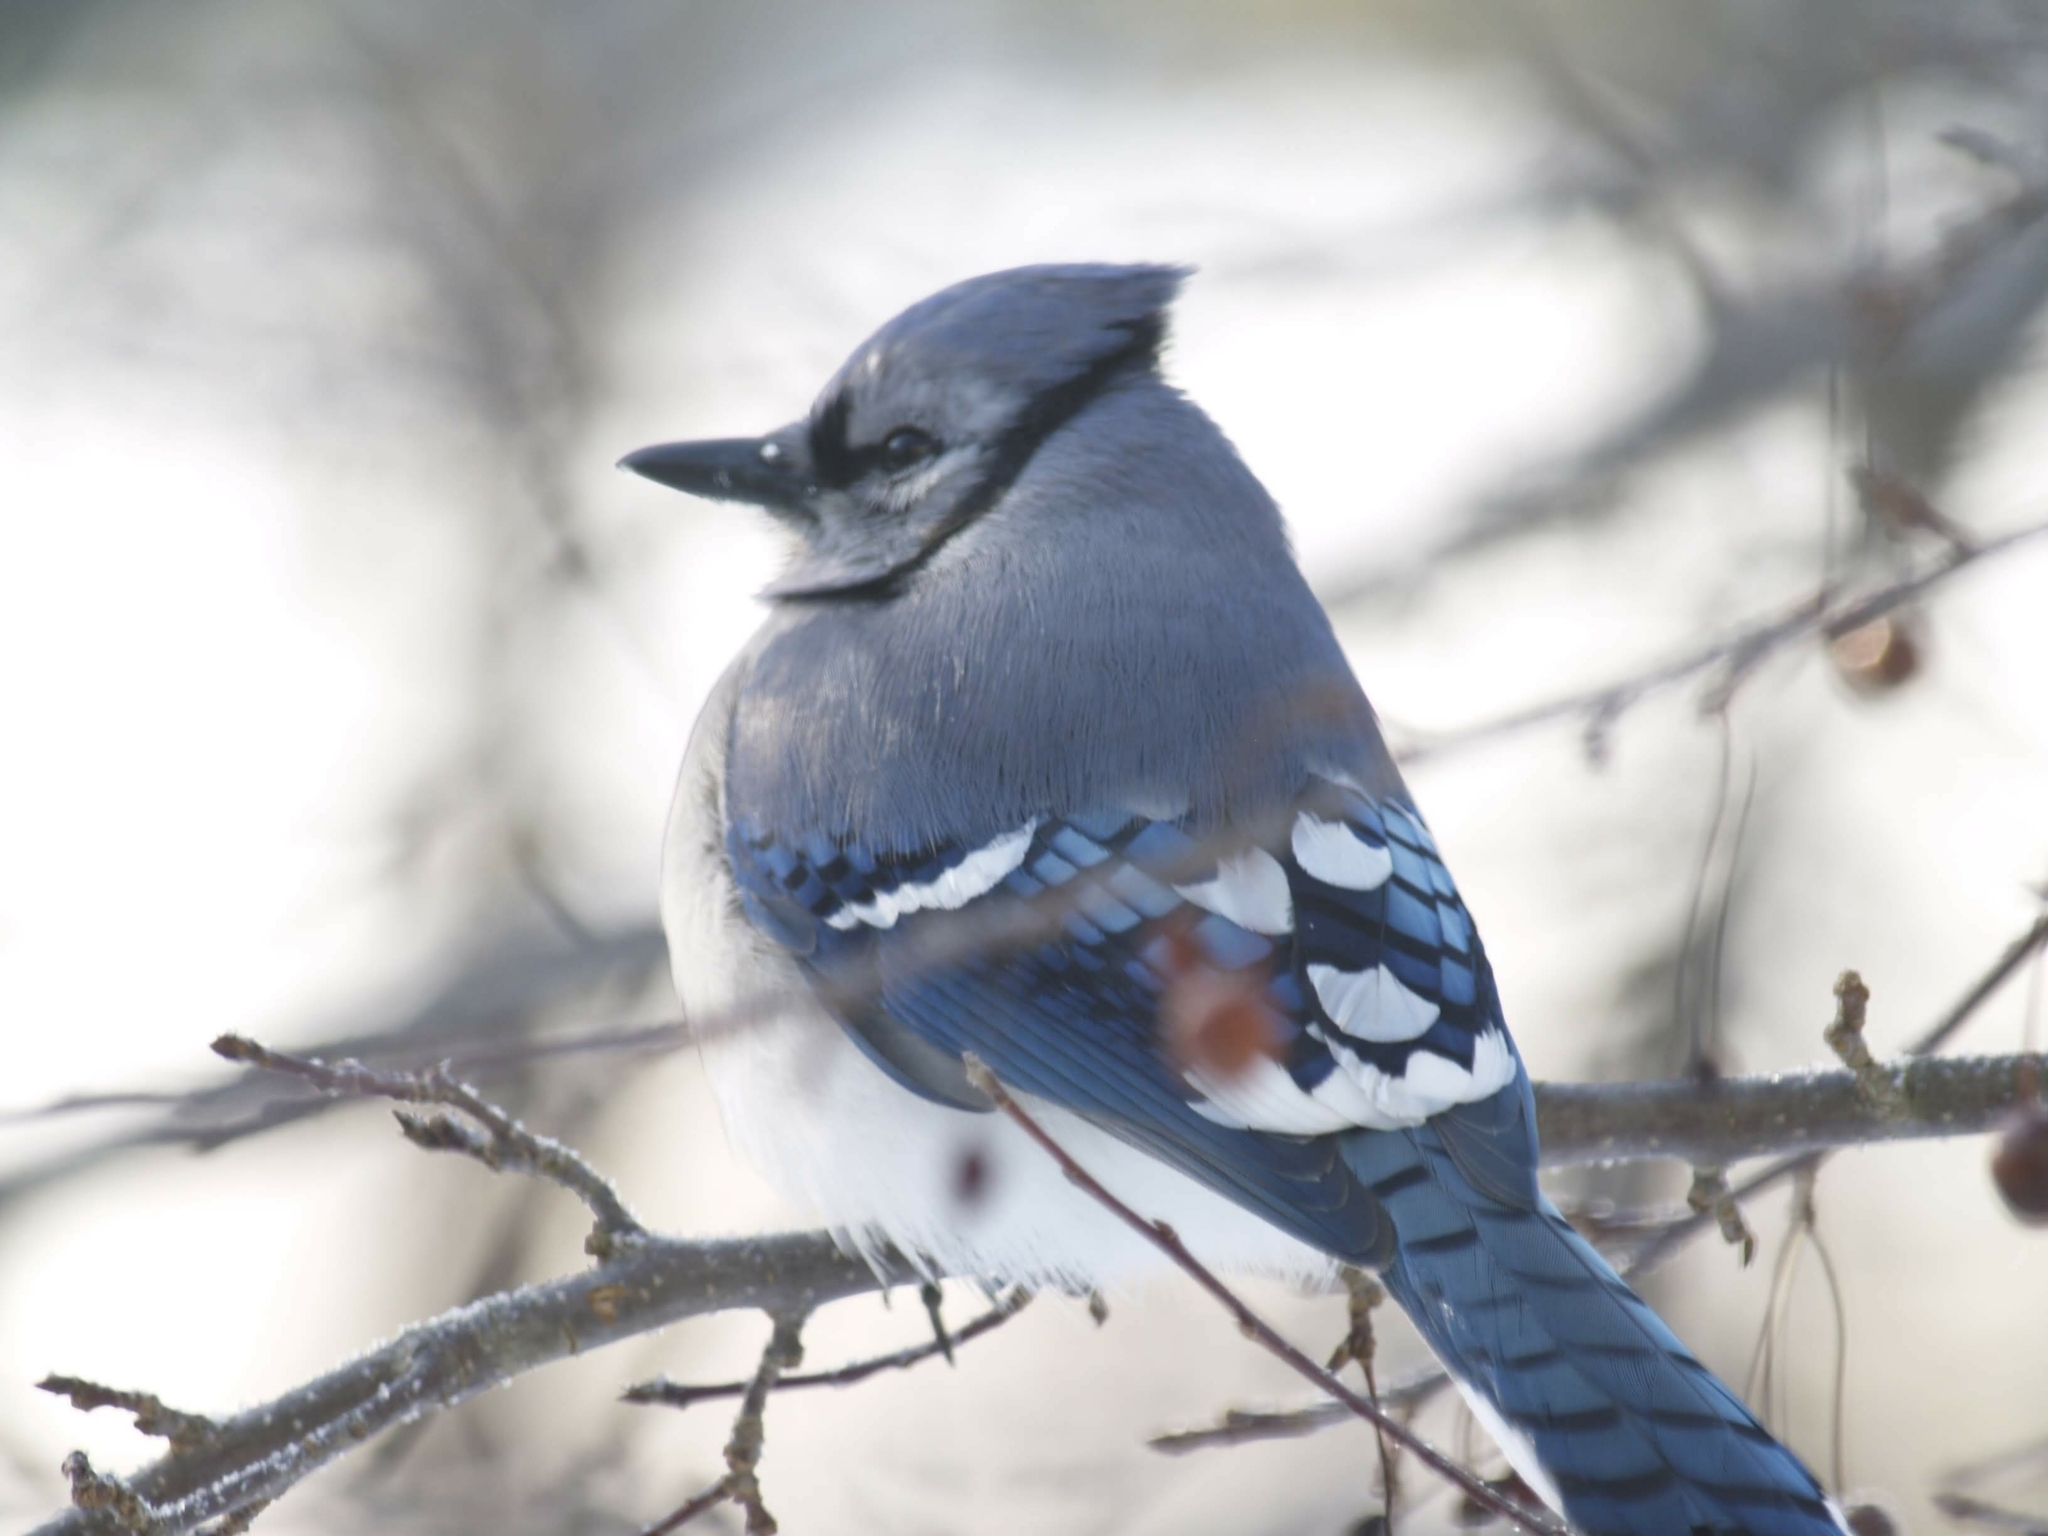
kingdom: Animalia
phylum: Chordata
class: Aves
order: Passeriformes
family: Corvidae
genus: Cyanocitta
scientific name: Cyanocitta cristata
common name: Blue jay
